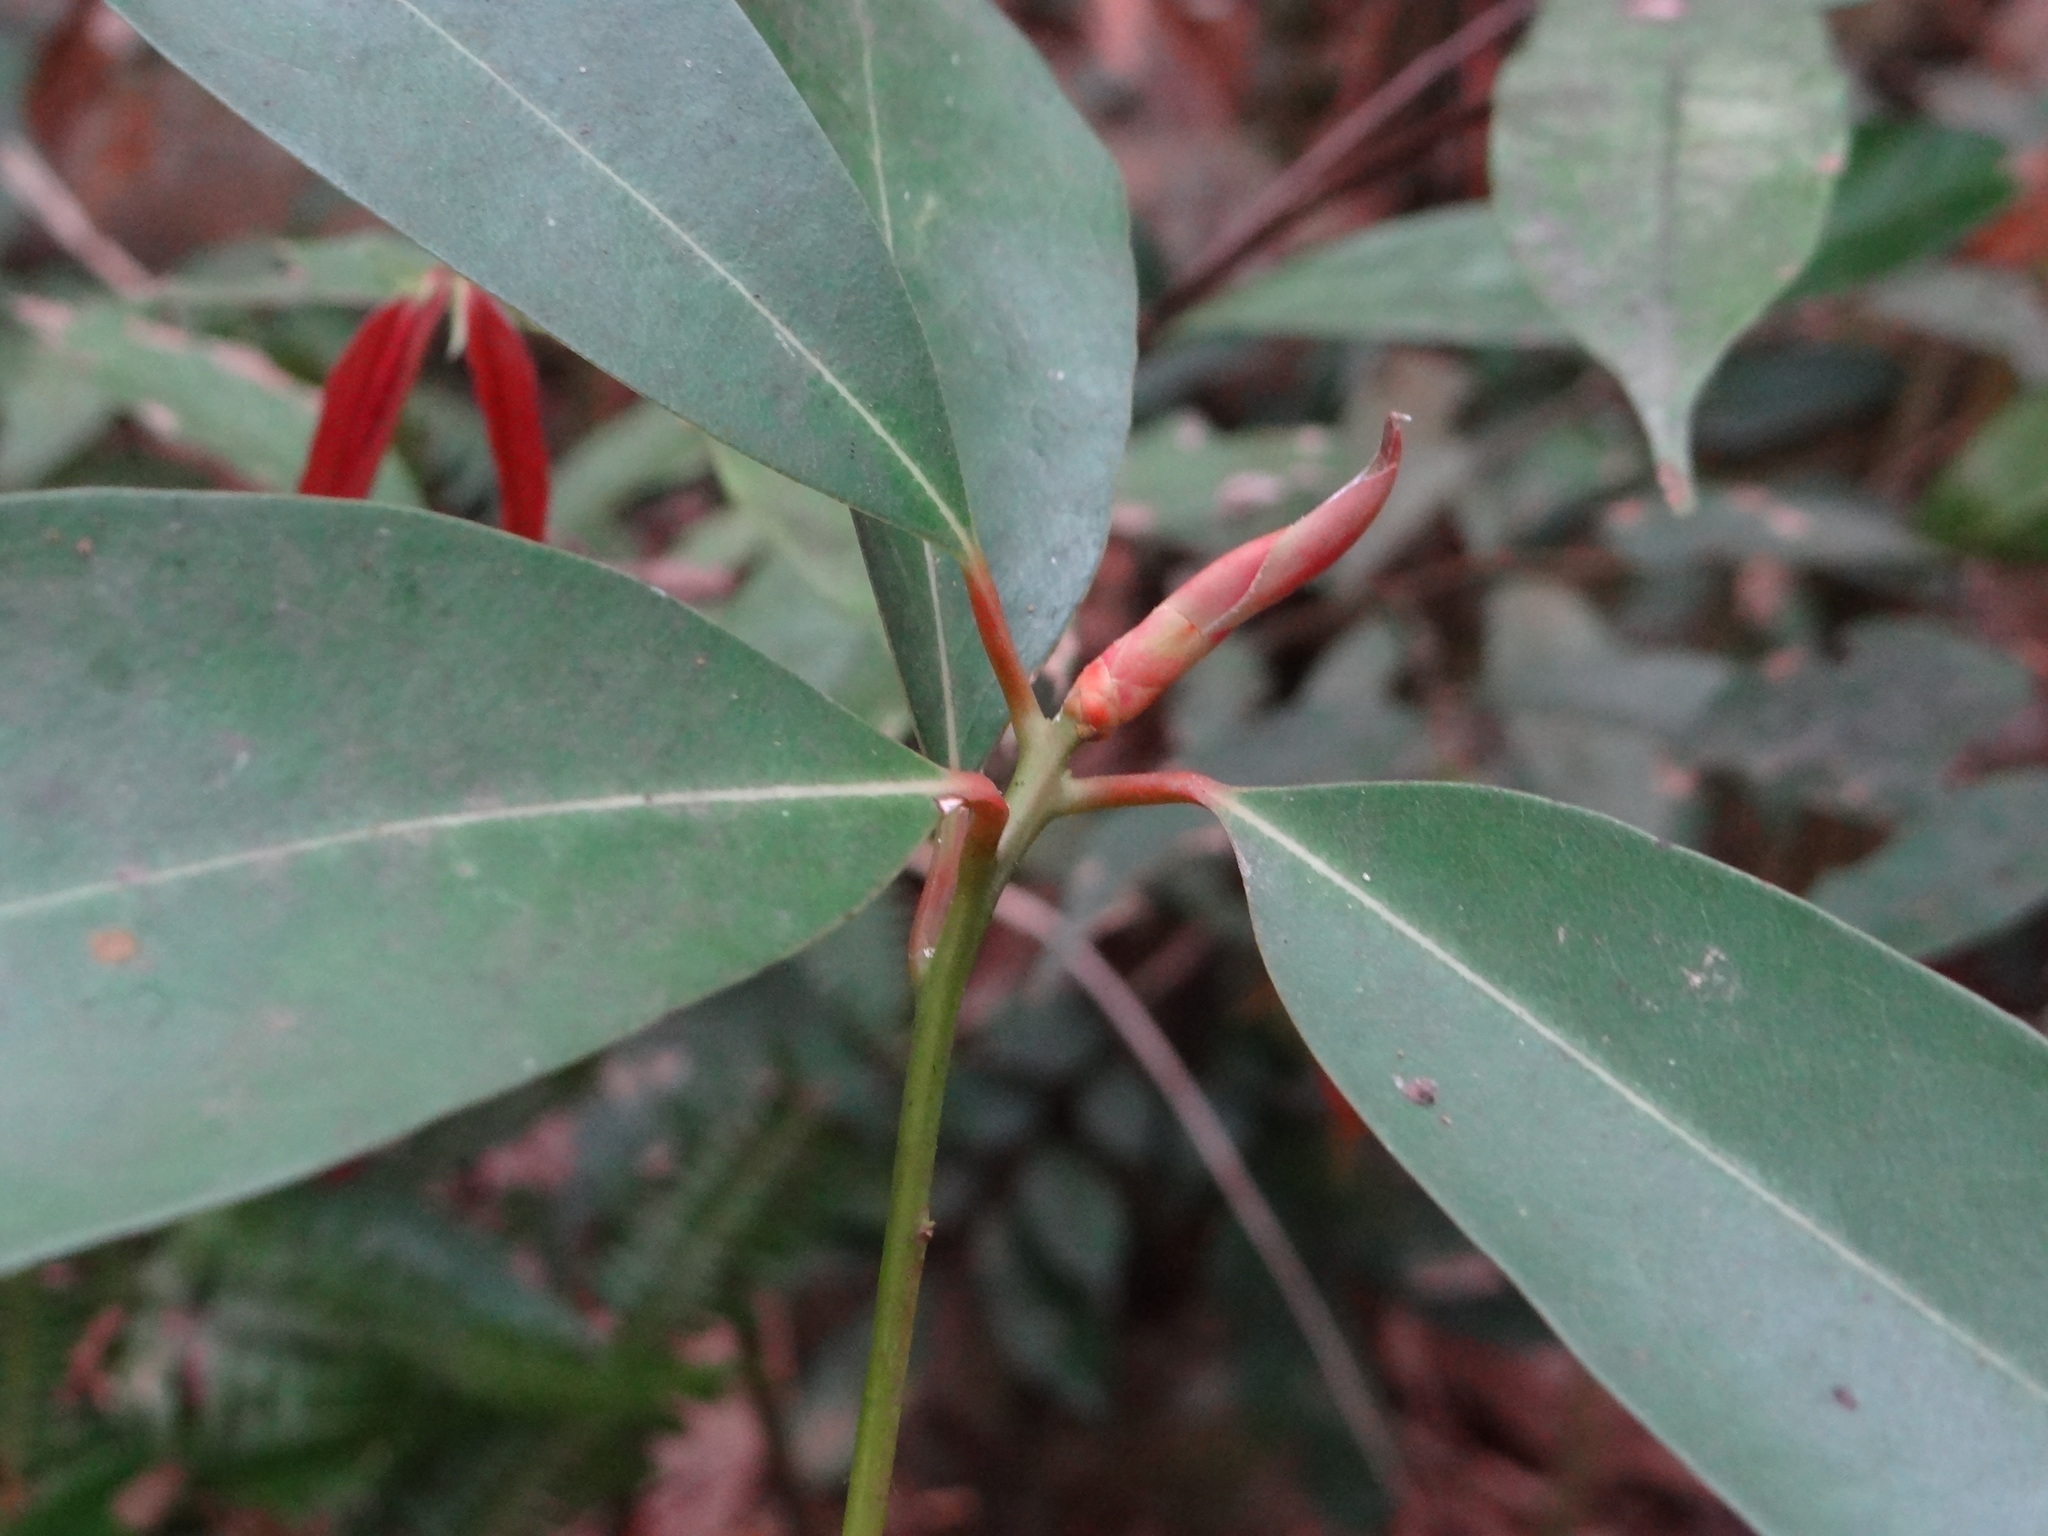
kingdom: Plantae
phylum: Tracheophyta
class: Magnoliopsida
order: Laurales
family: Lauraceae
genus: Machilus
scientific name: Machilus thunbergii
